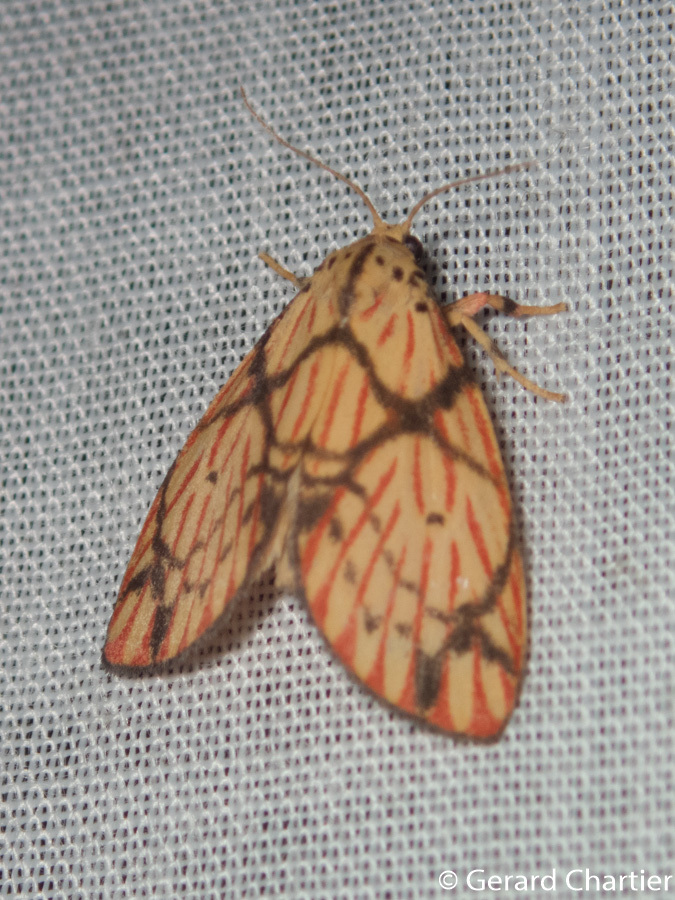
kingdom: Animalia
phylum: Arthropoda
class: Insecta
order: Lepidoptera
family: Erebidae
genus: Barsilene
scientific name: Barsilene pallinflexa
